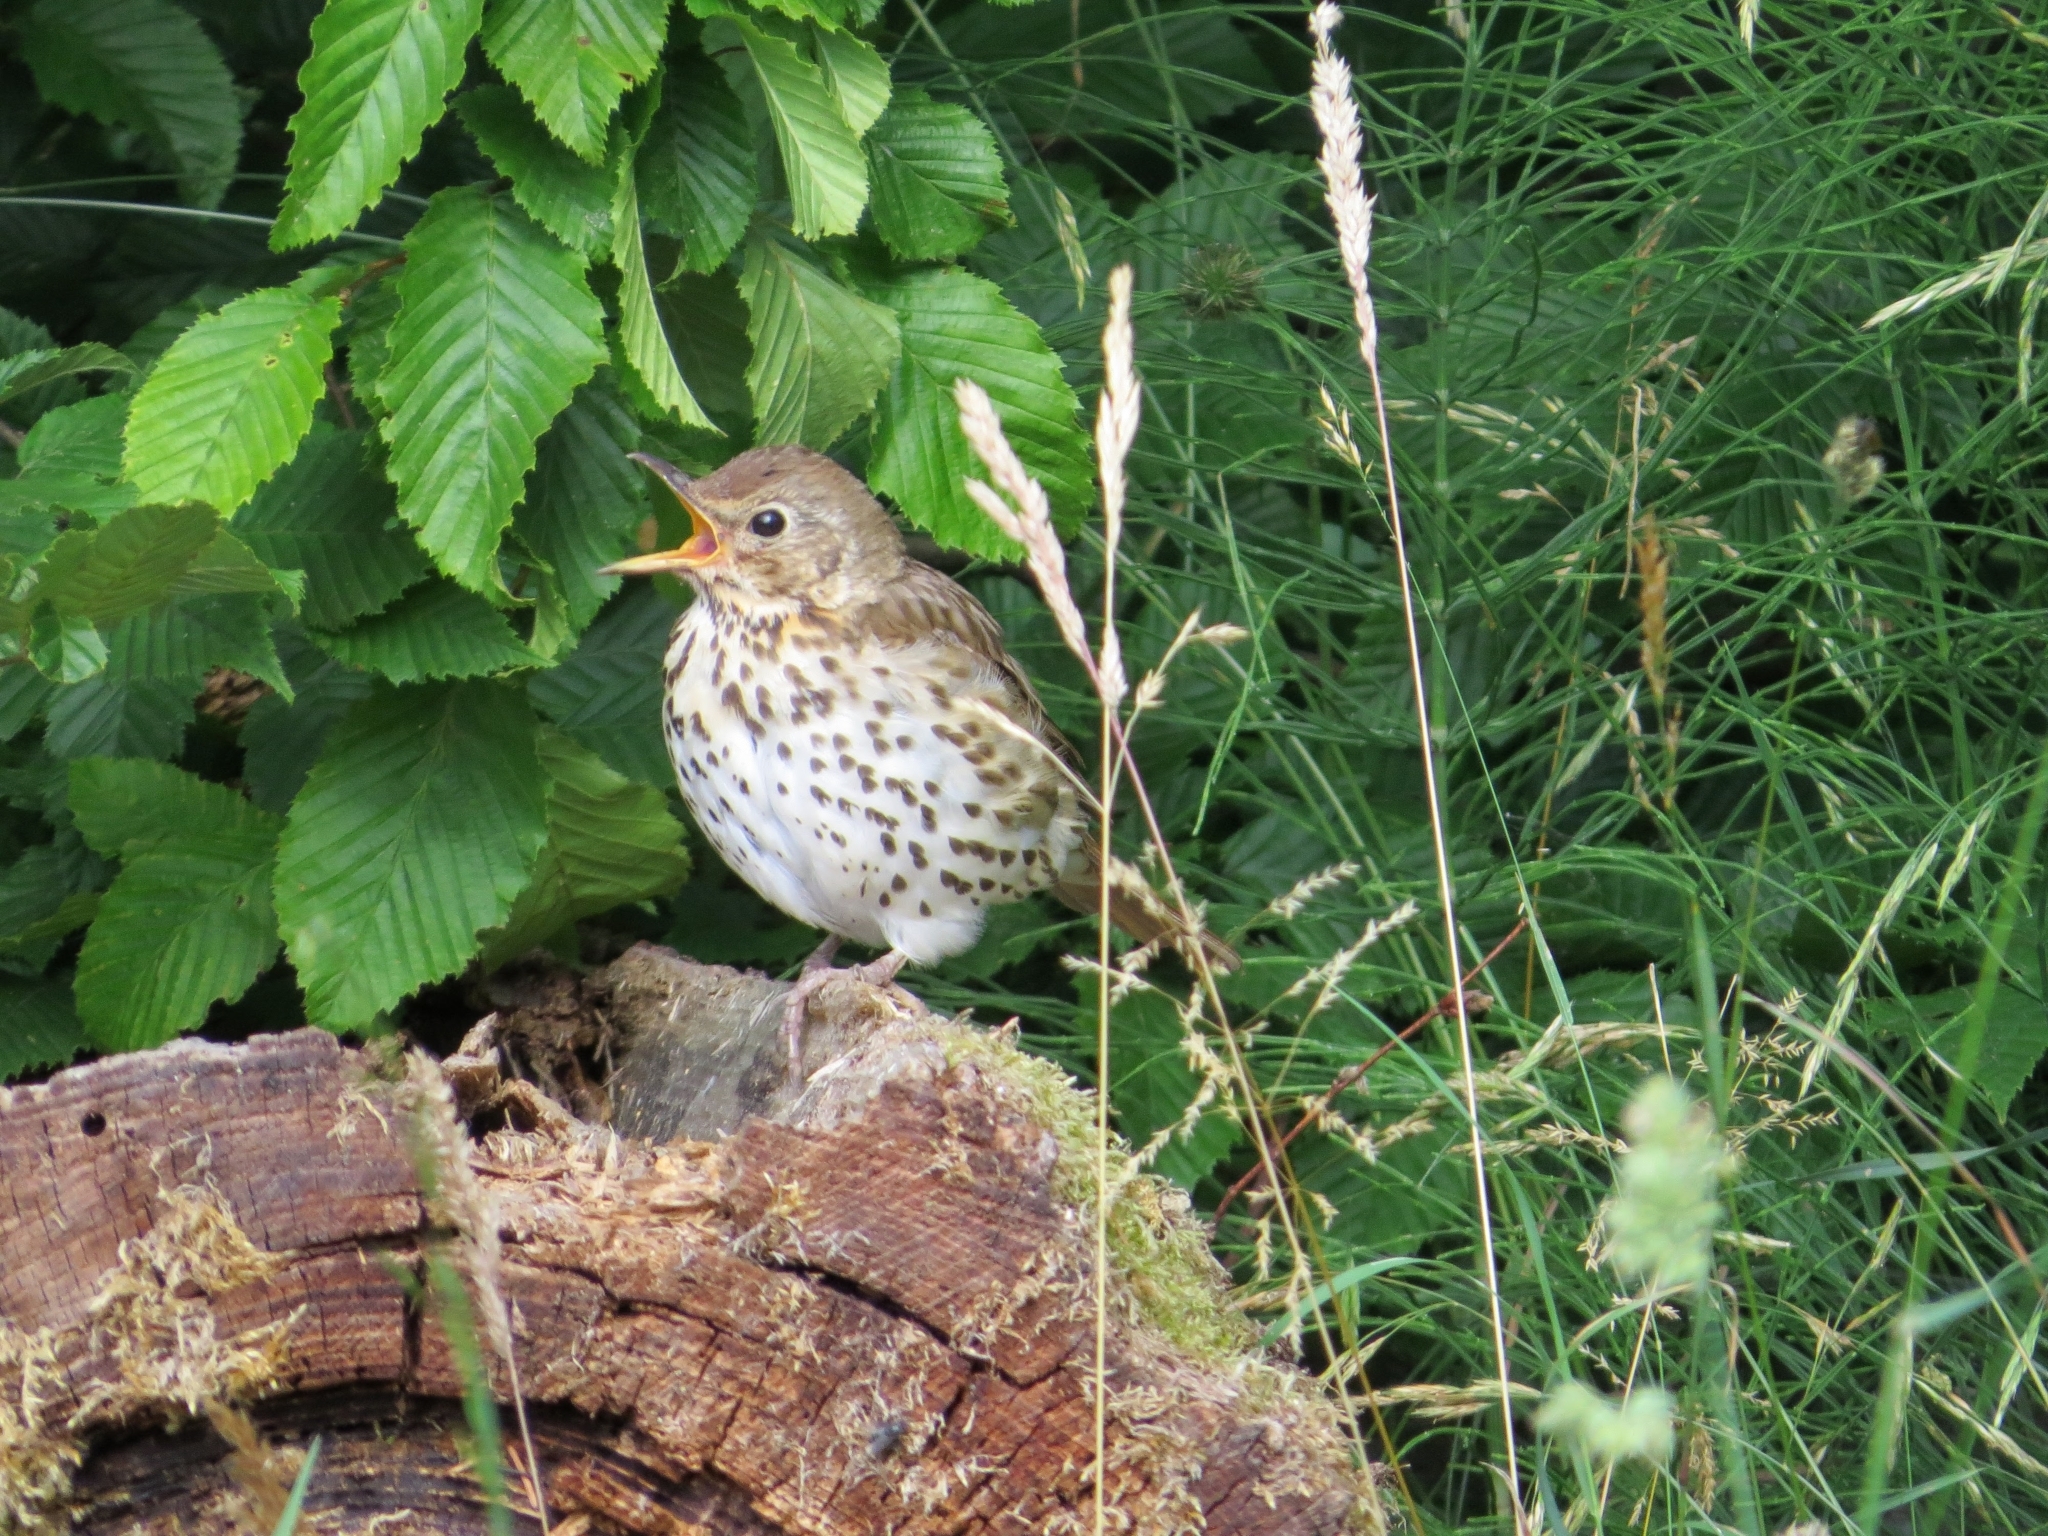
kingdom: Animalia
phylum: Chordata
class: Aves
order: Passeriformes
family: Turdidae
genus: Turdus
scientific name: Turdus philomelos
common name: Song thrush
